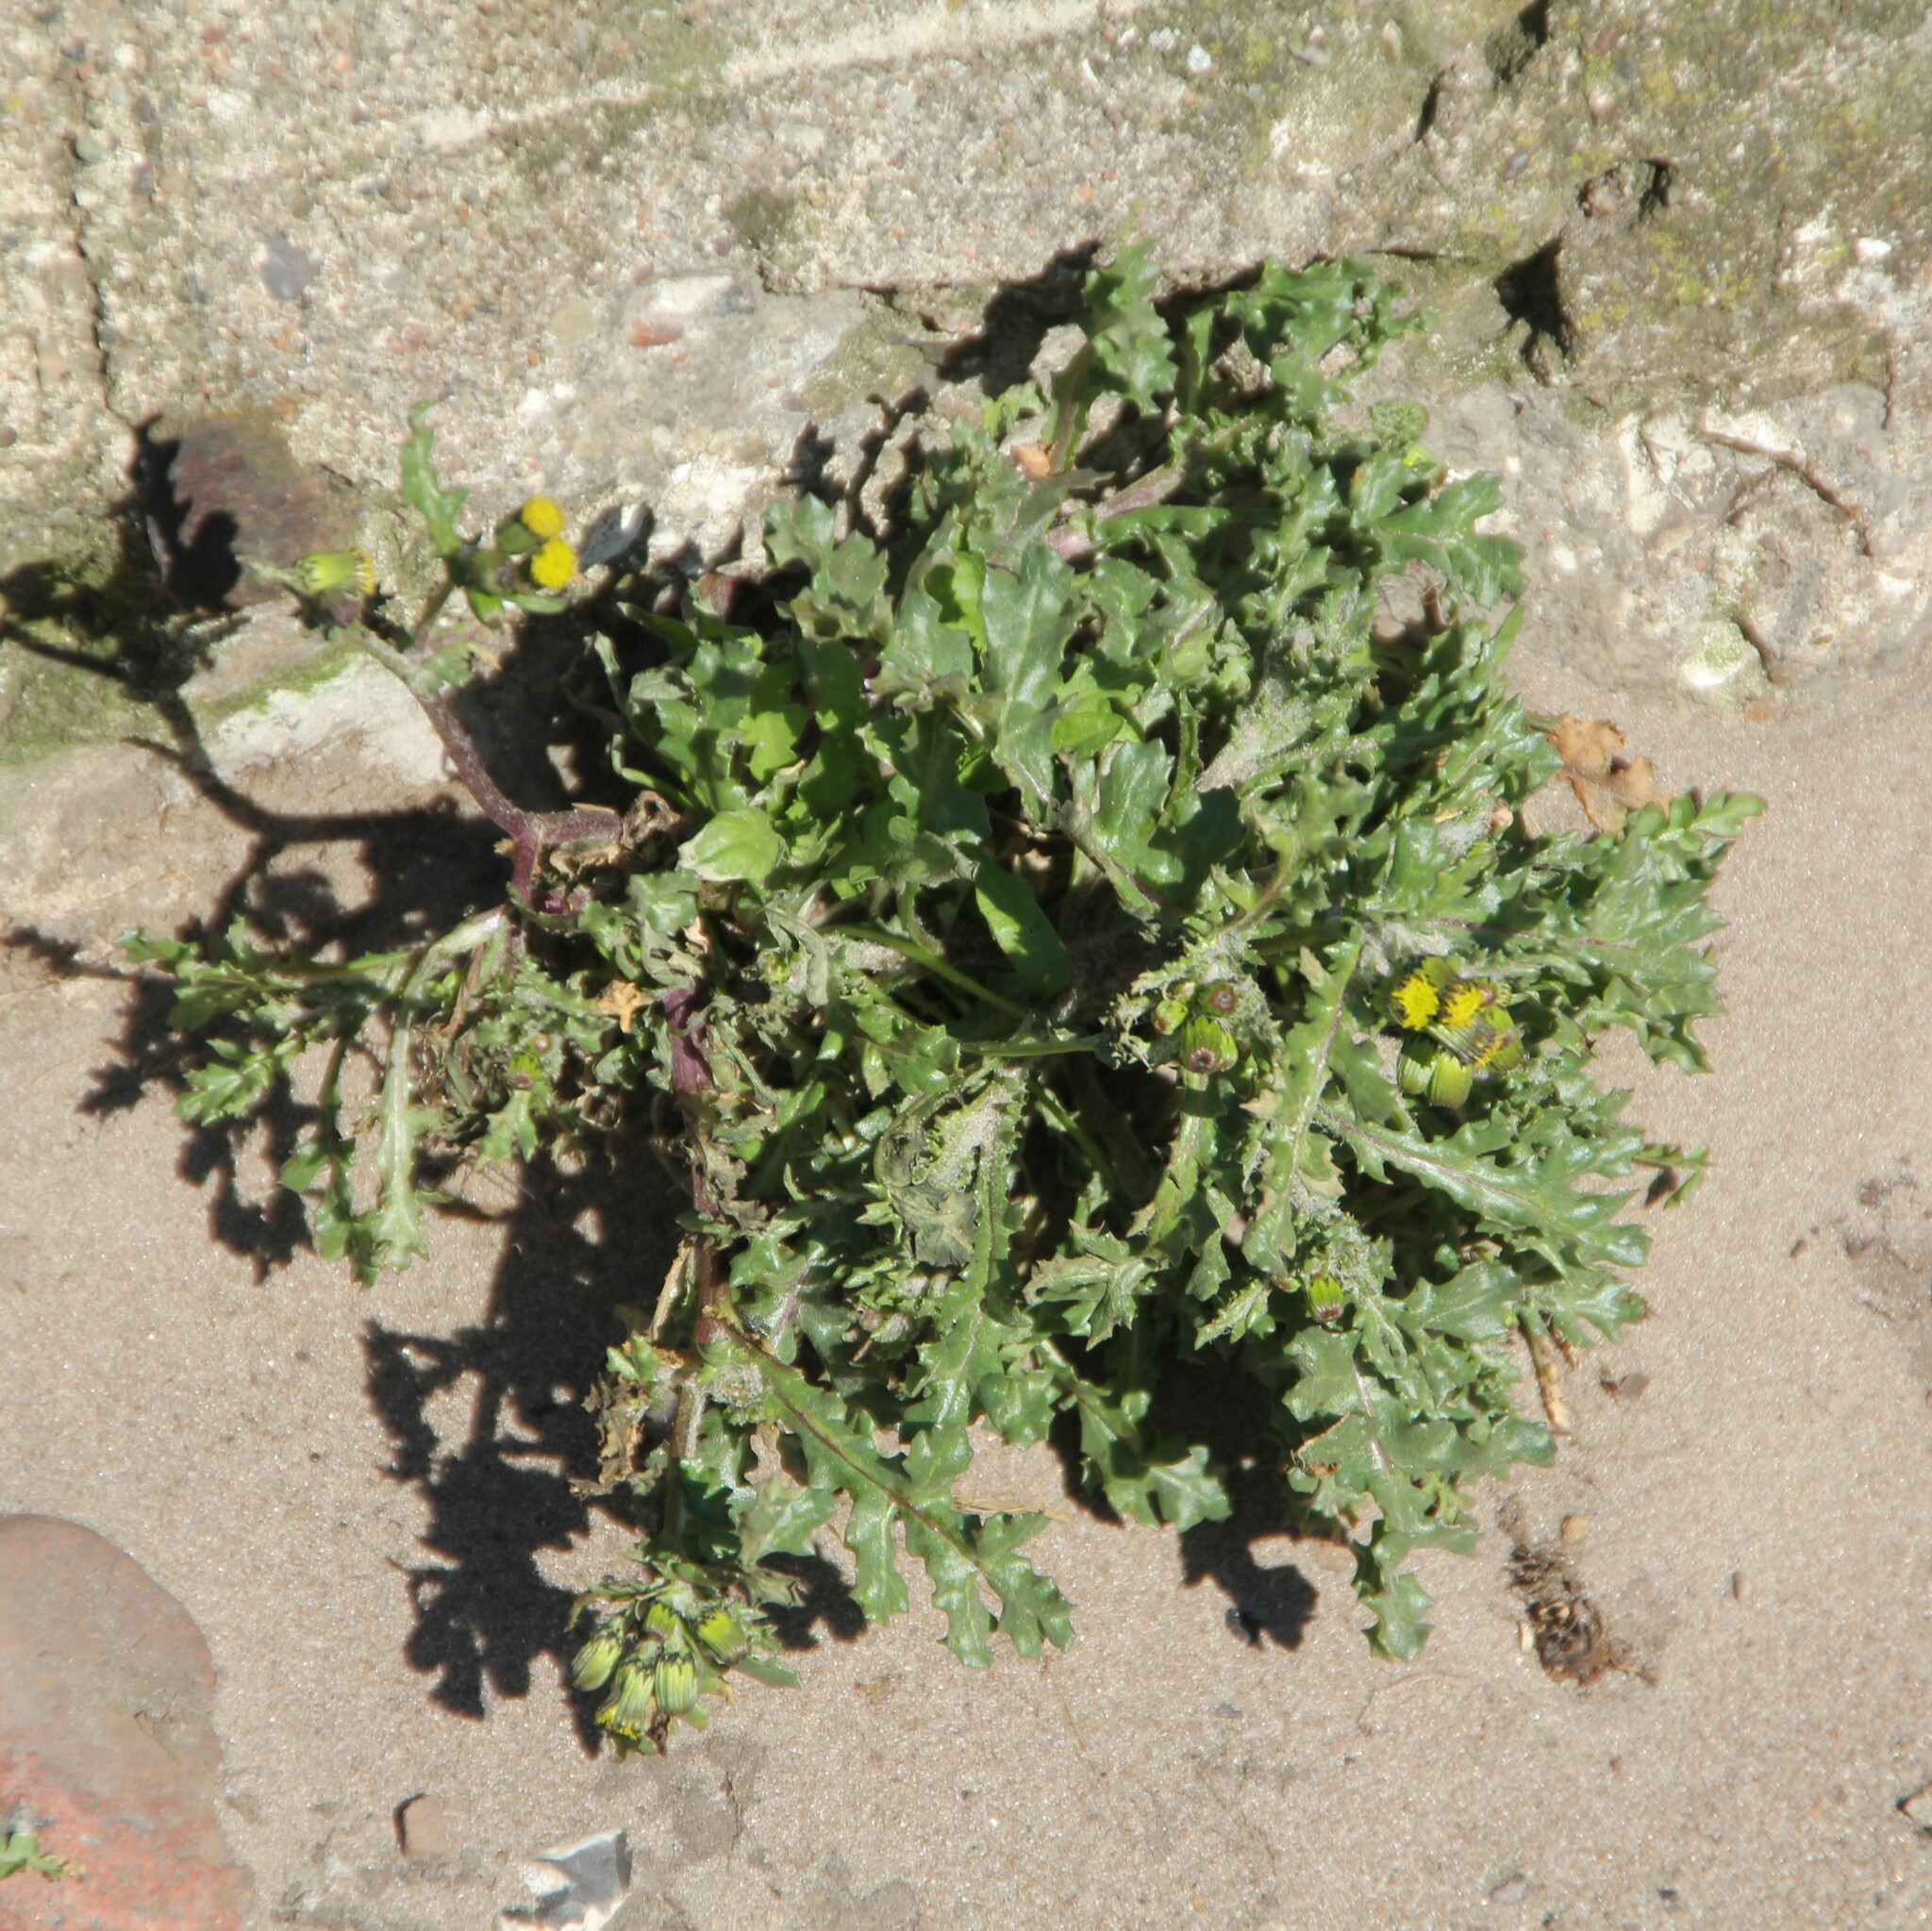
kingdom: Plantae
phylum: Tracheophyta
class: Magnoliopsida
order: Asterales
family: Asteraceae
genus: Senecio
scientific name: Senecio vulgaris
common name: Old-man-in-the-spring
